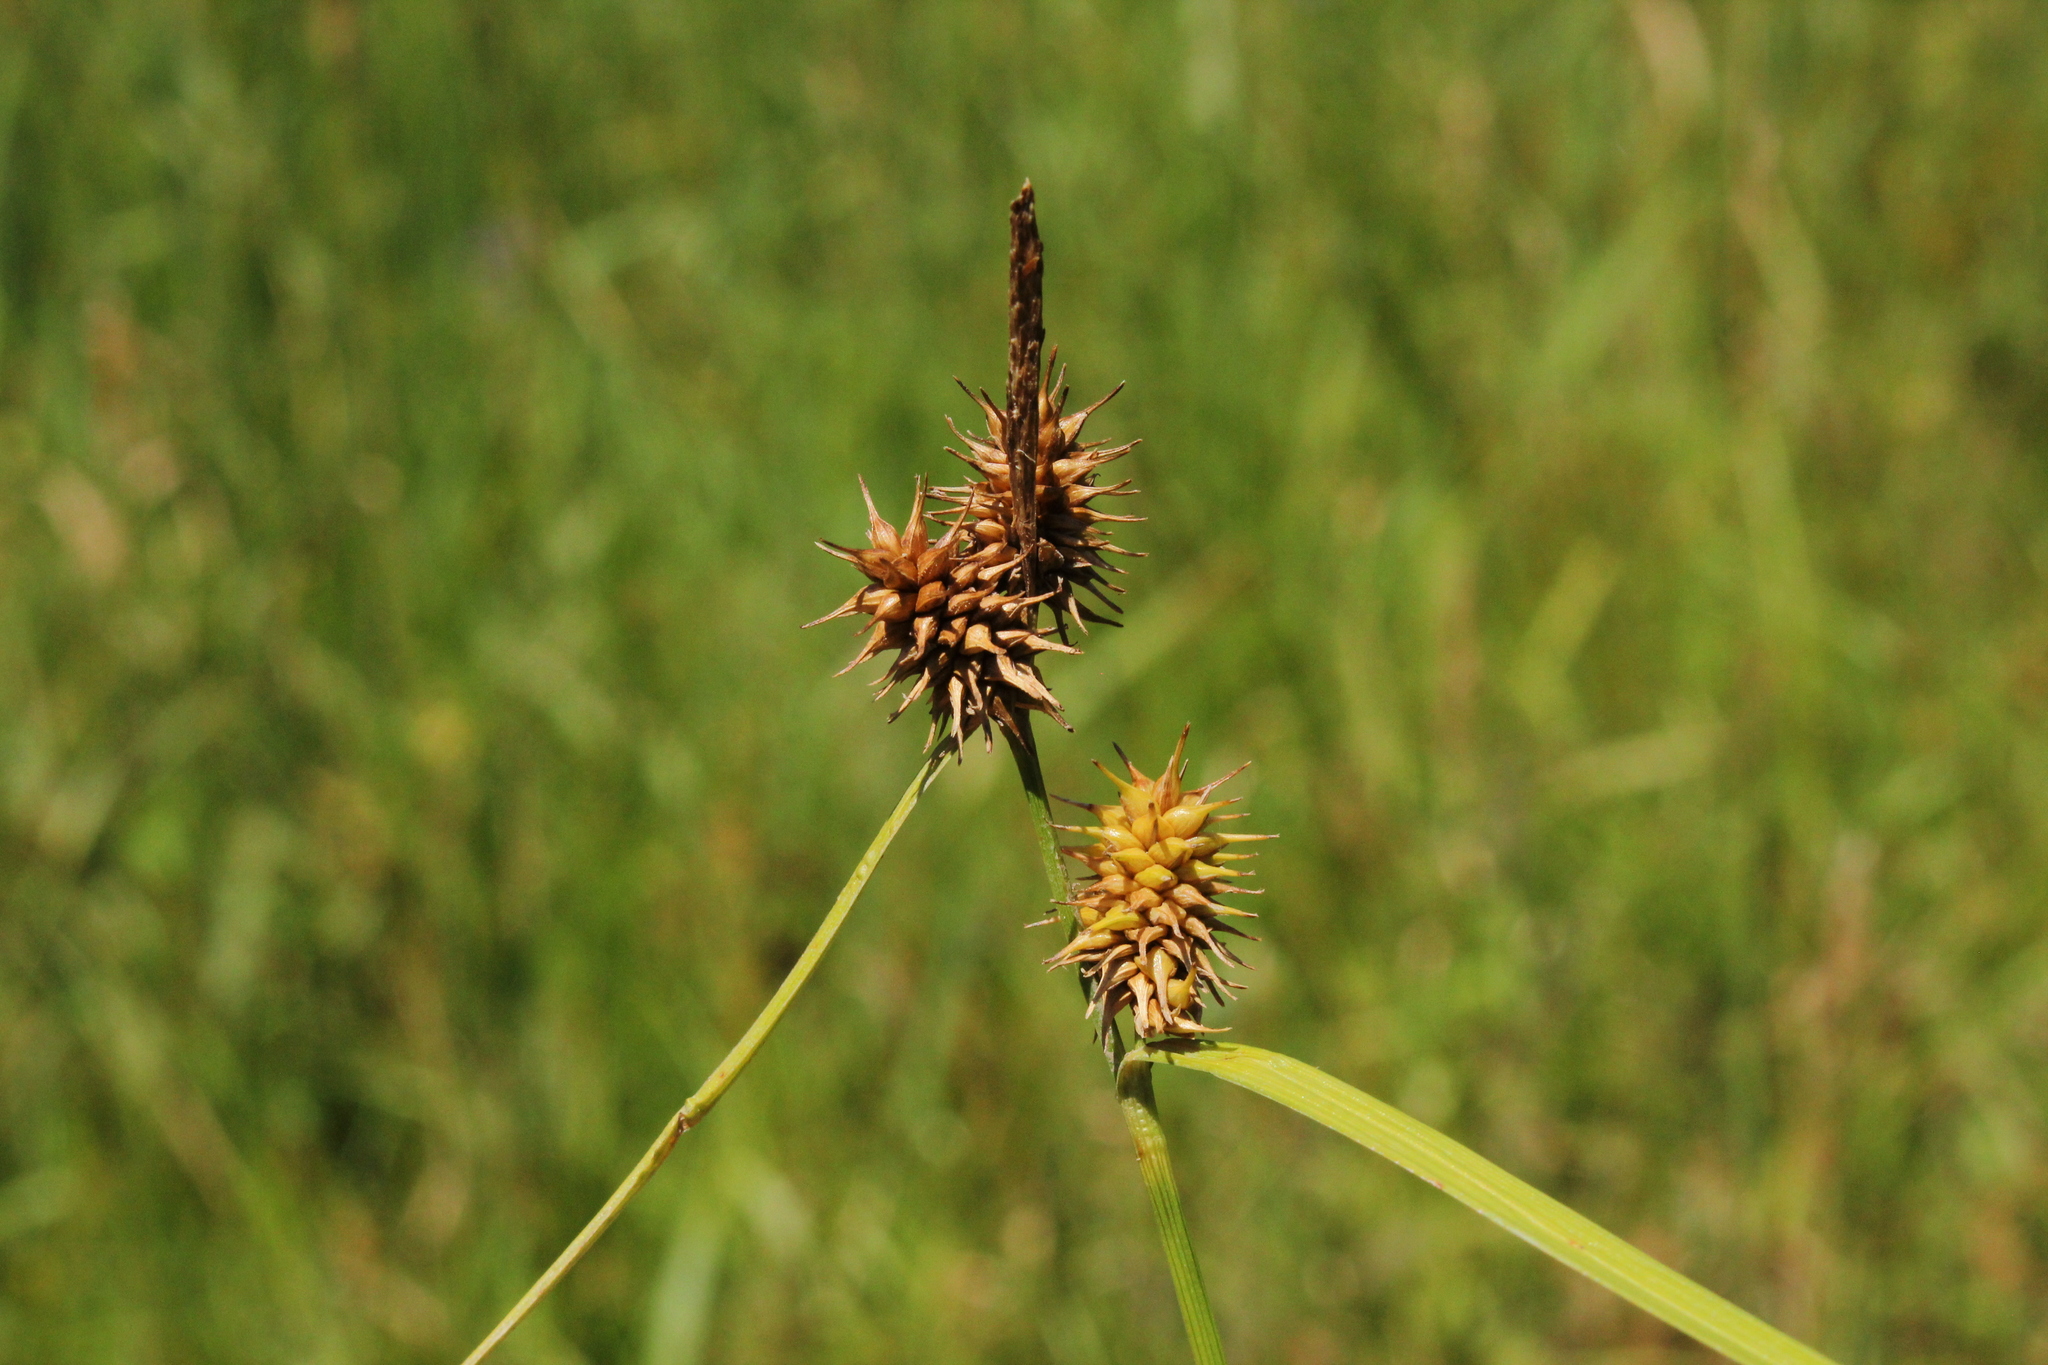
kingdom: Plantae
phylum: Tracheophyta
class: Liliopsida
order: Poales
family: Cyperaceae
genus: Carex
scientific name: Carex flava
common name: Large yellow-sedge
